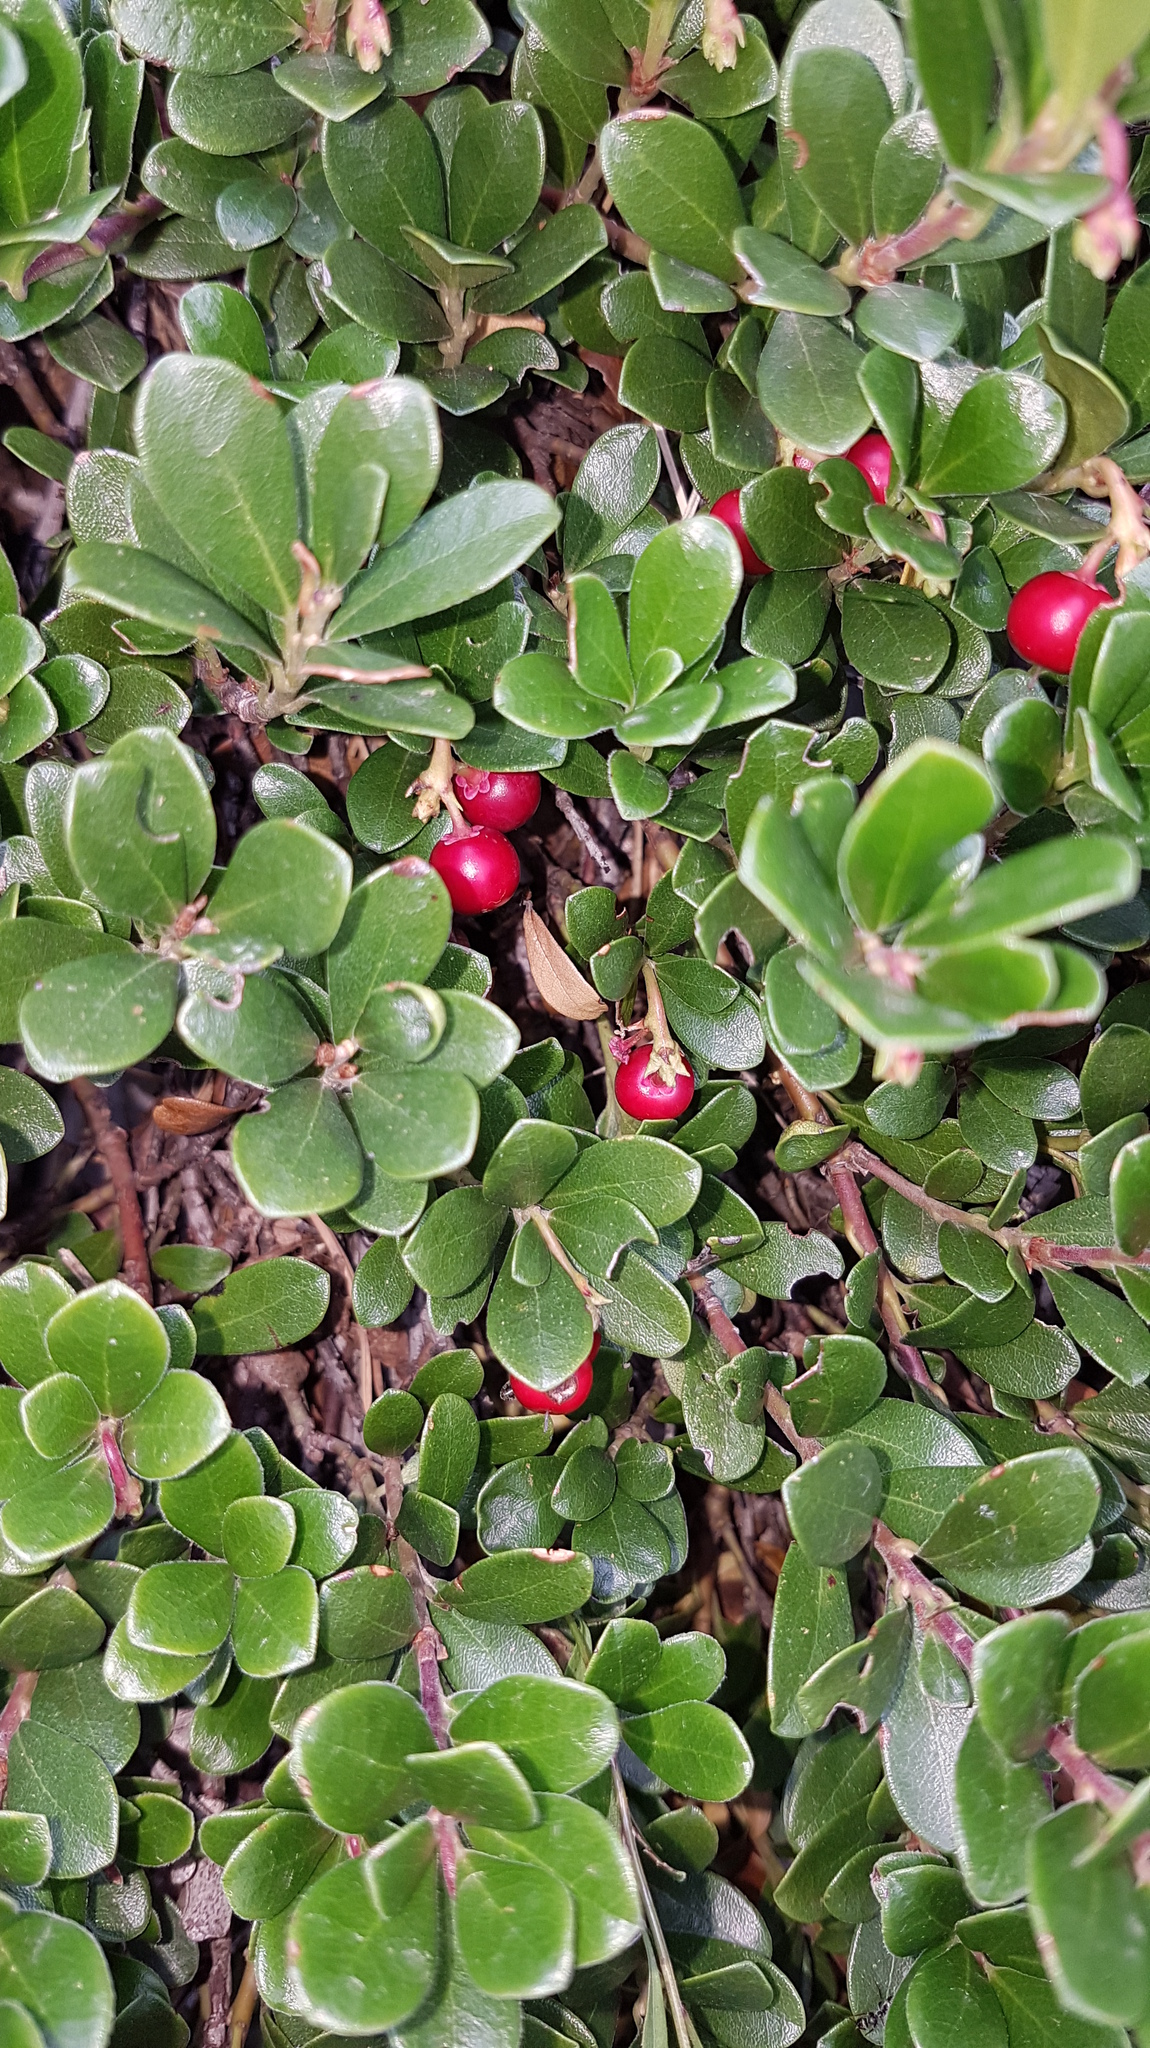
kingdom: Plantae
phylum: Tracheophyta
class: Magnoliopsida
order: Ericales
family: Ericaceae
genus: Arctostaphylos
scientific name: Arctostaphylos uva-ursi
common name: Bearberry
